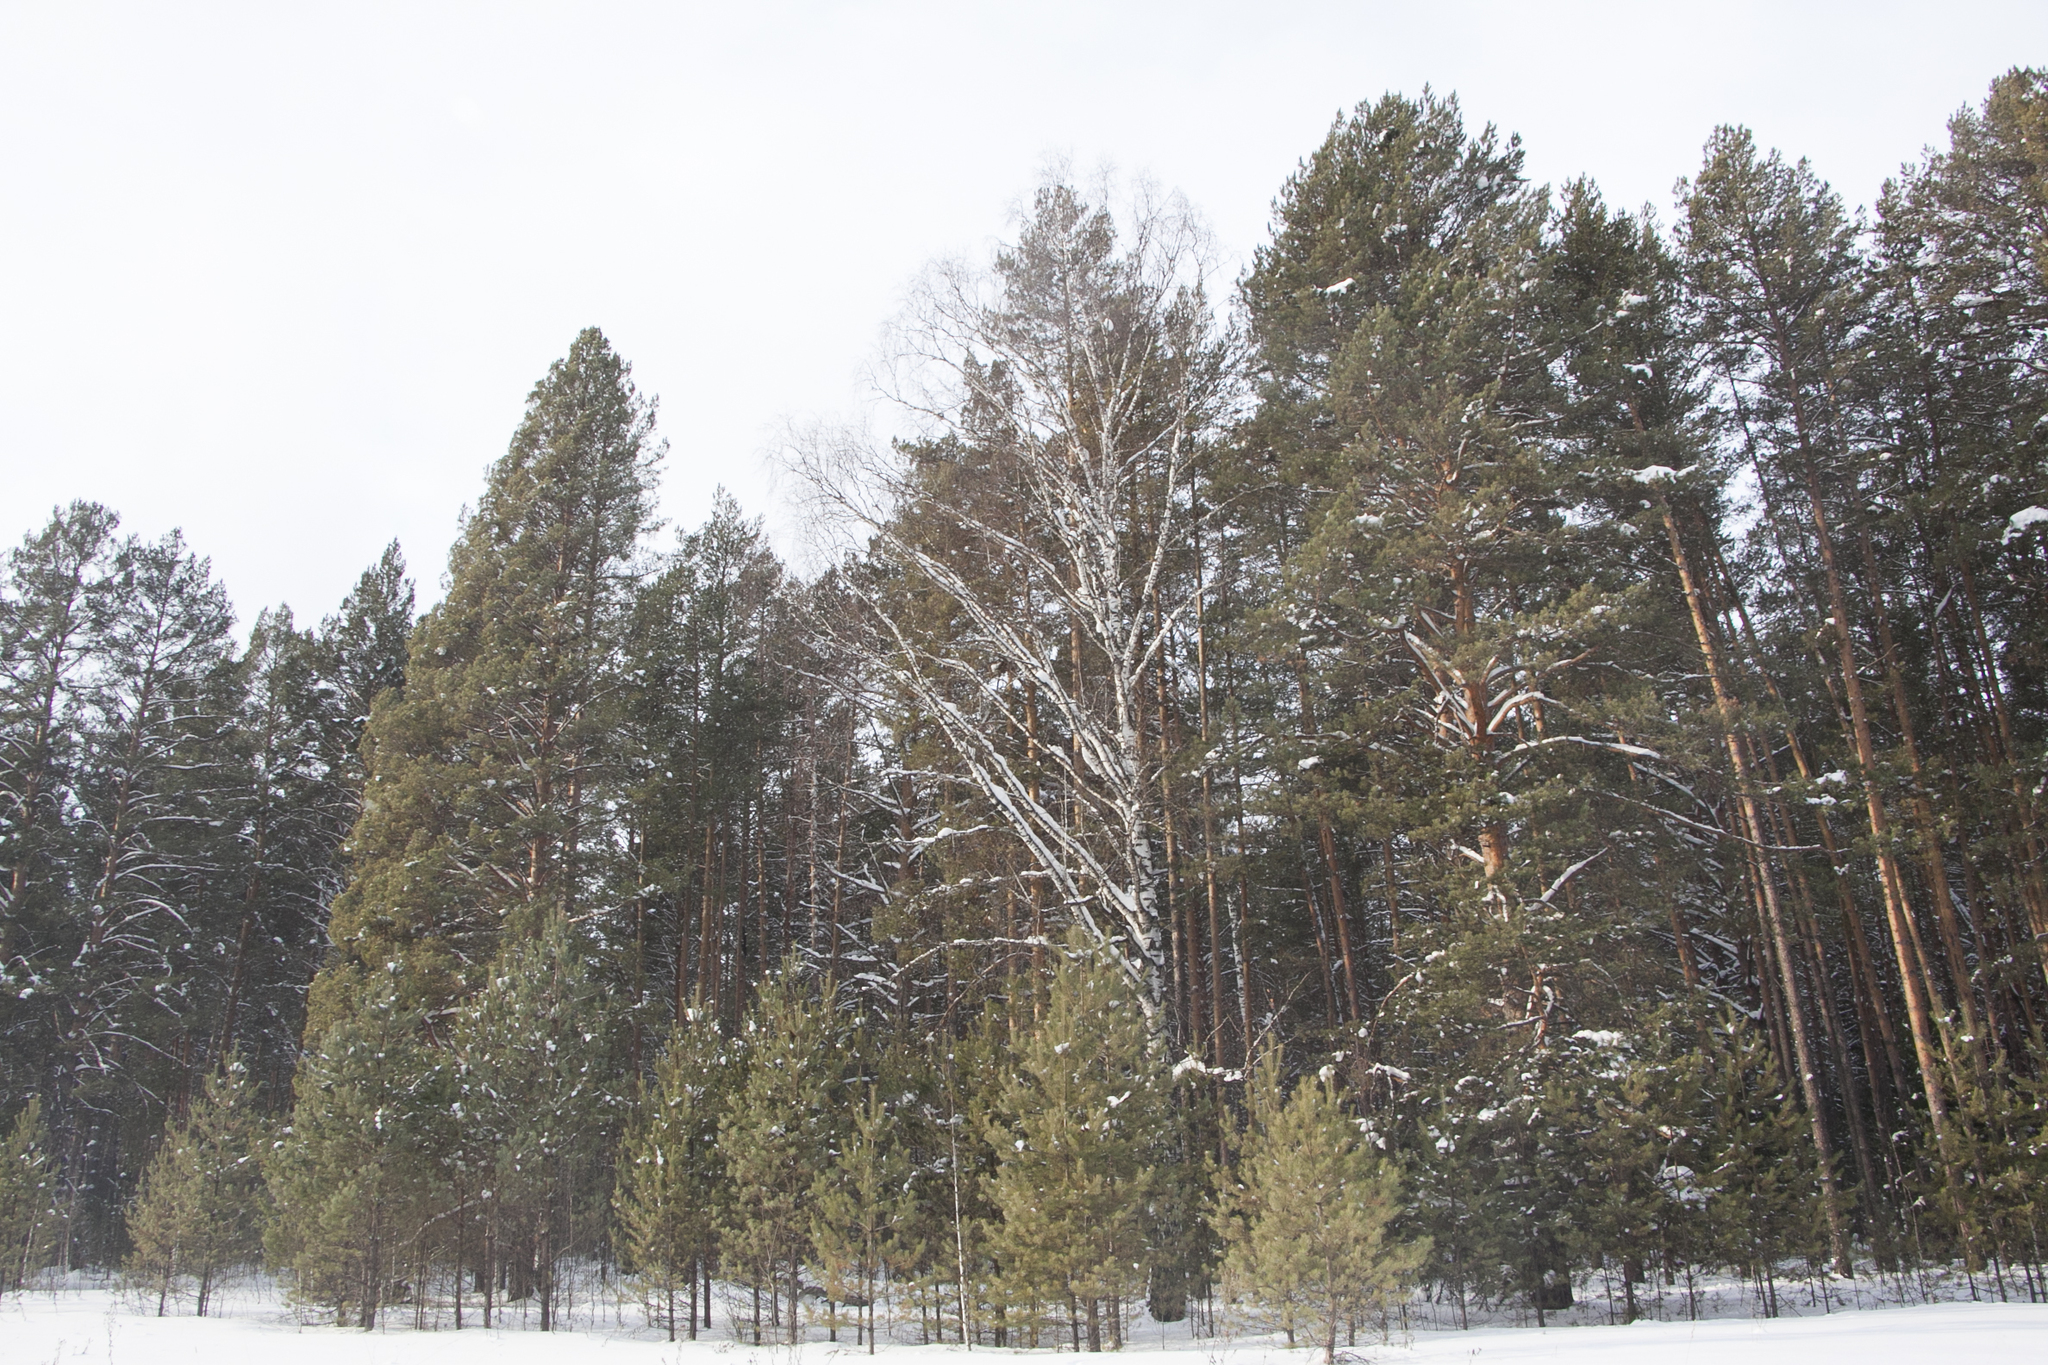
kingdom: Plantae
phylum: Tracheophyta
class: Pinopsida
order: Pinales
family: Pinaceae
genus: Pinus
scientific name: Pinus sylvestris
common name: Scots pine
